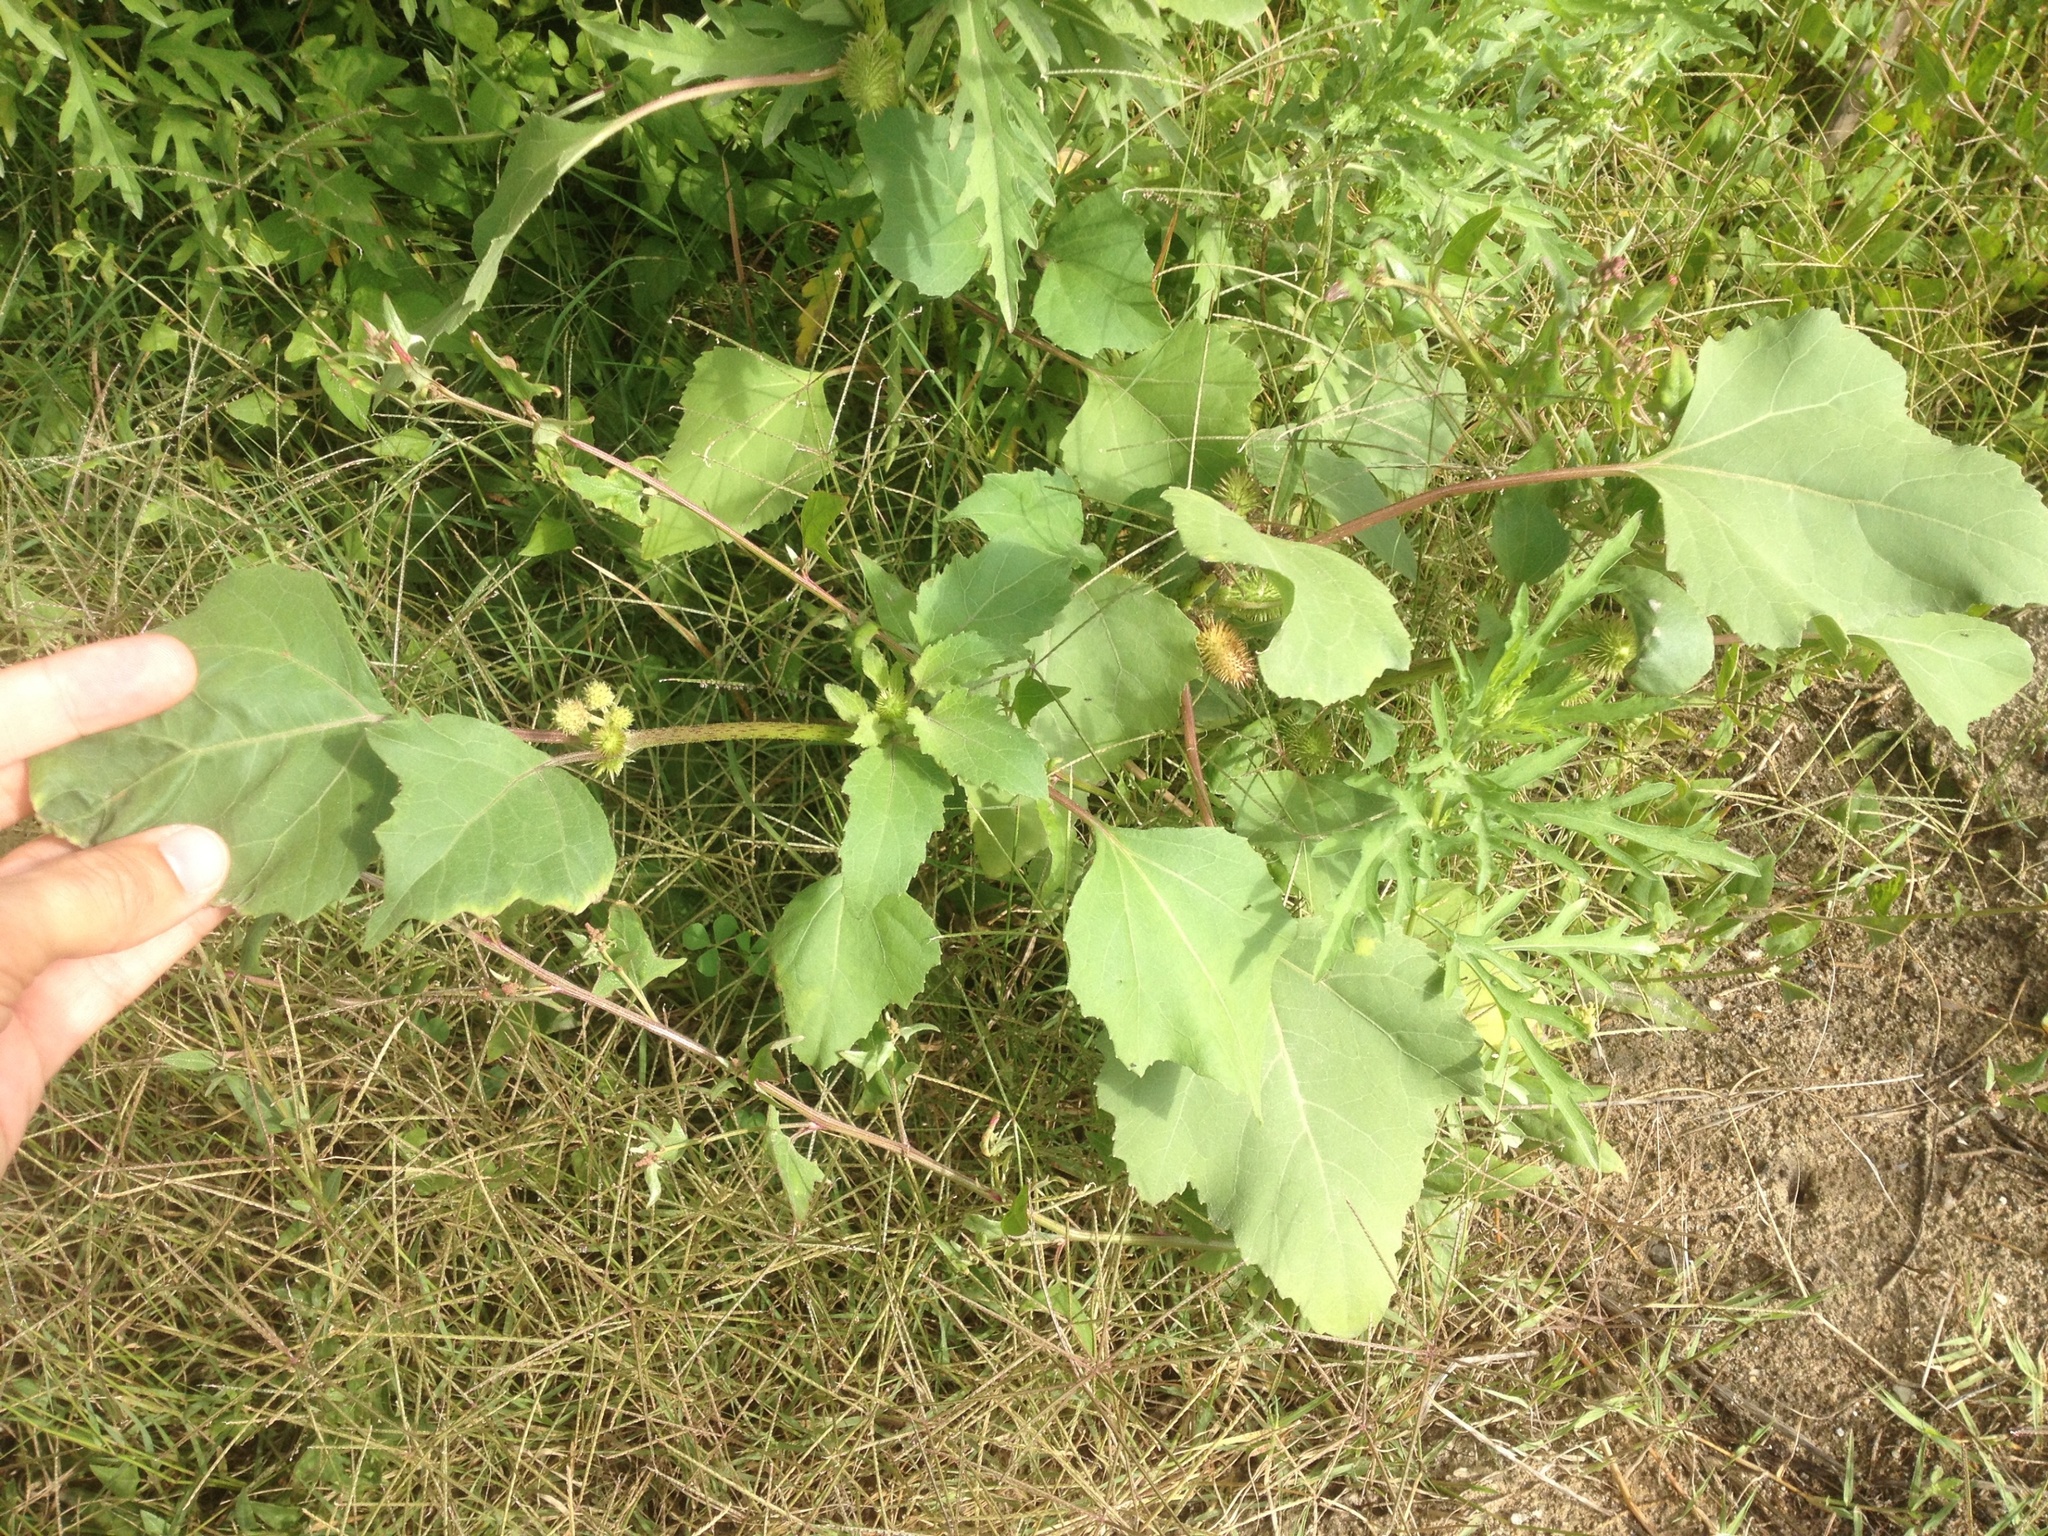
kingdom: Plantae
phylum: Tracheophyta
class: Magnoliopsida
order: Asterales
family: Asteraceae
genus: Xanthium
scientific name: Xanthium strumarium
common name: Rough cocklebur
